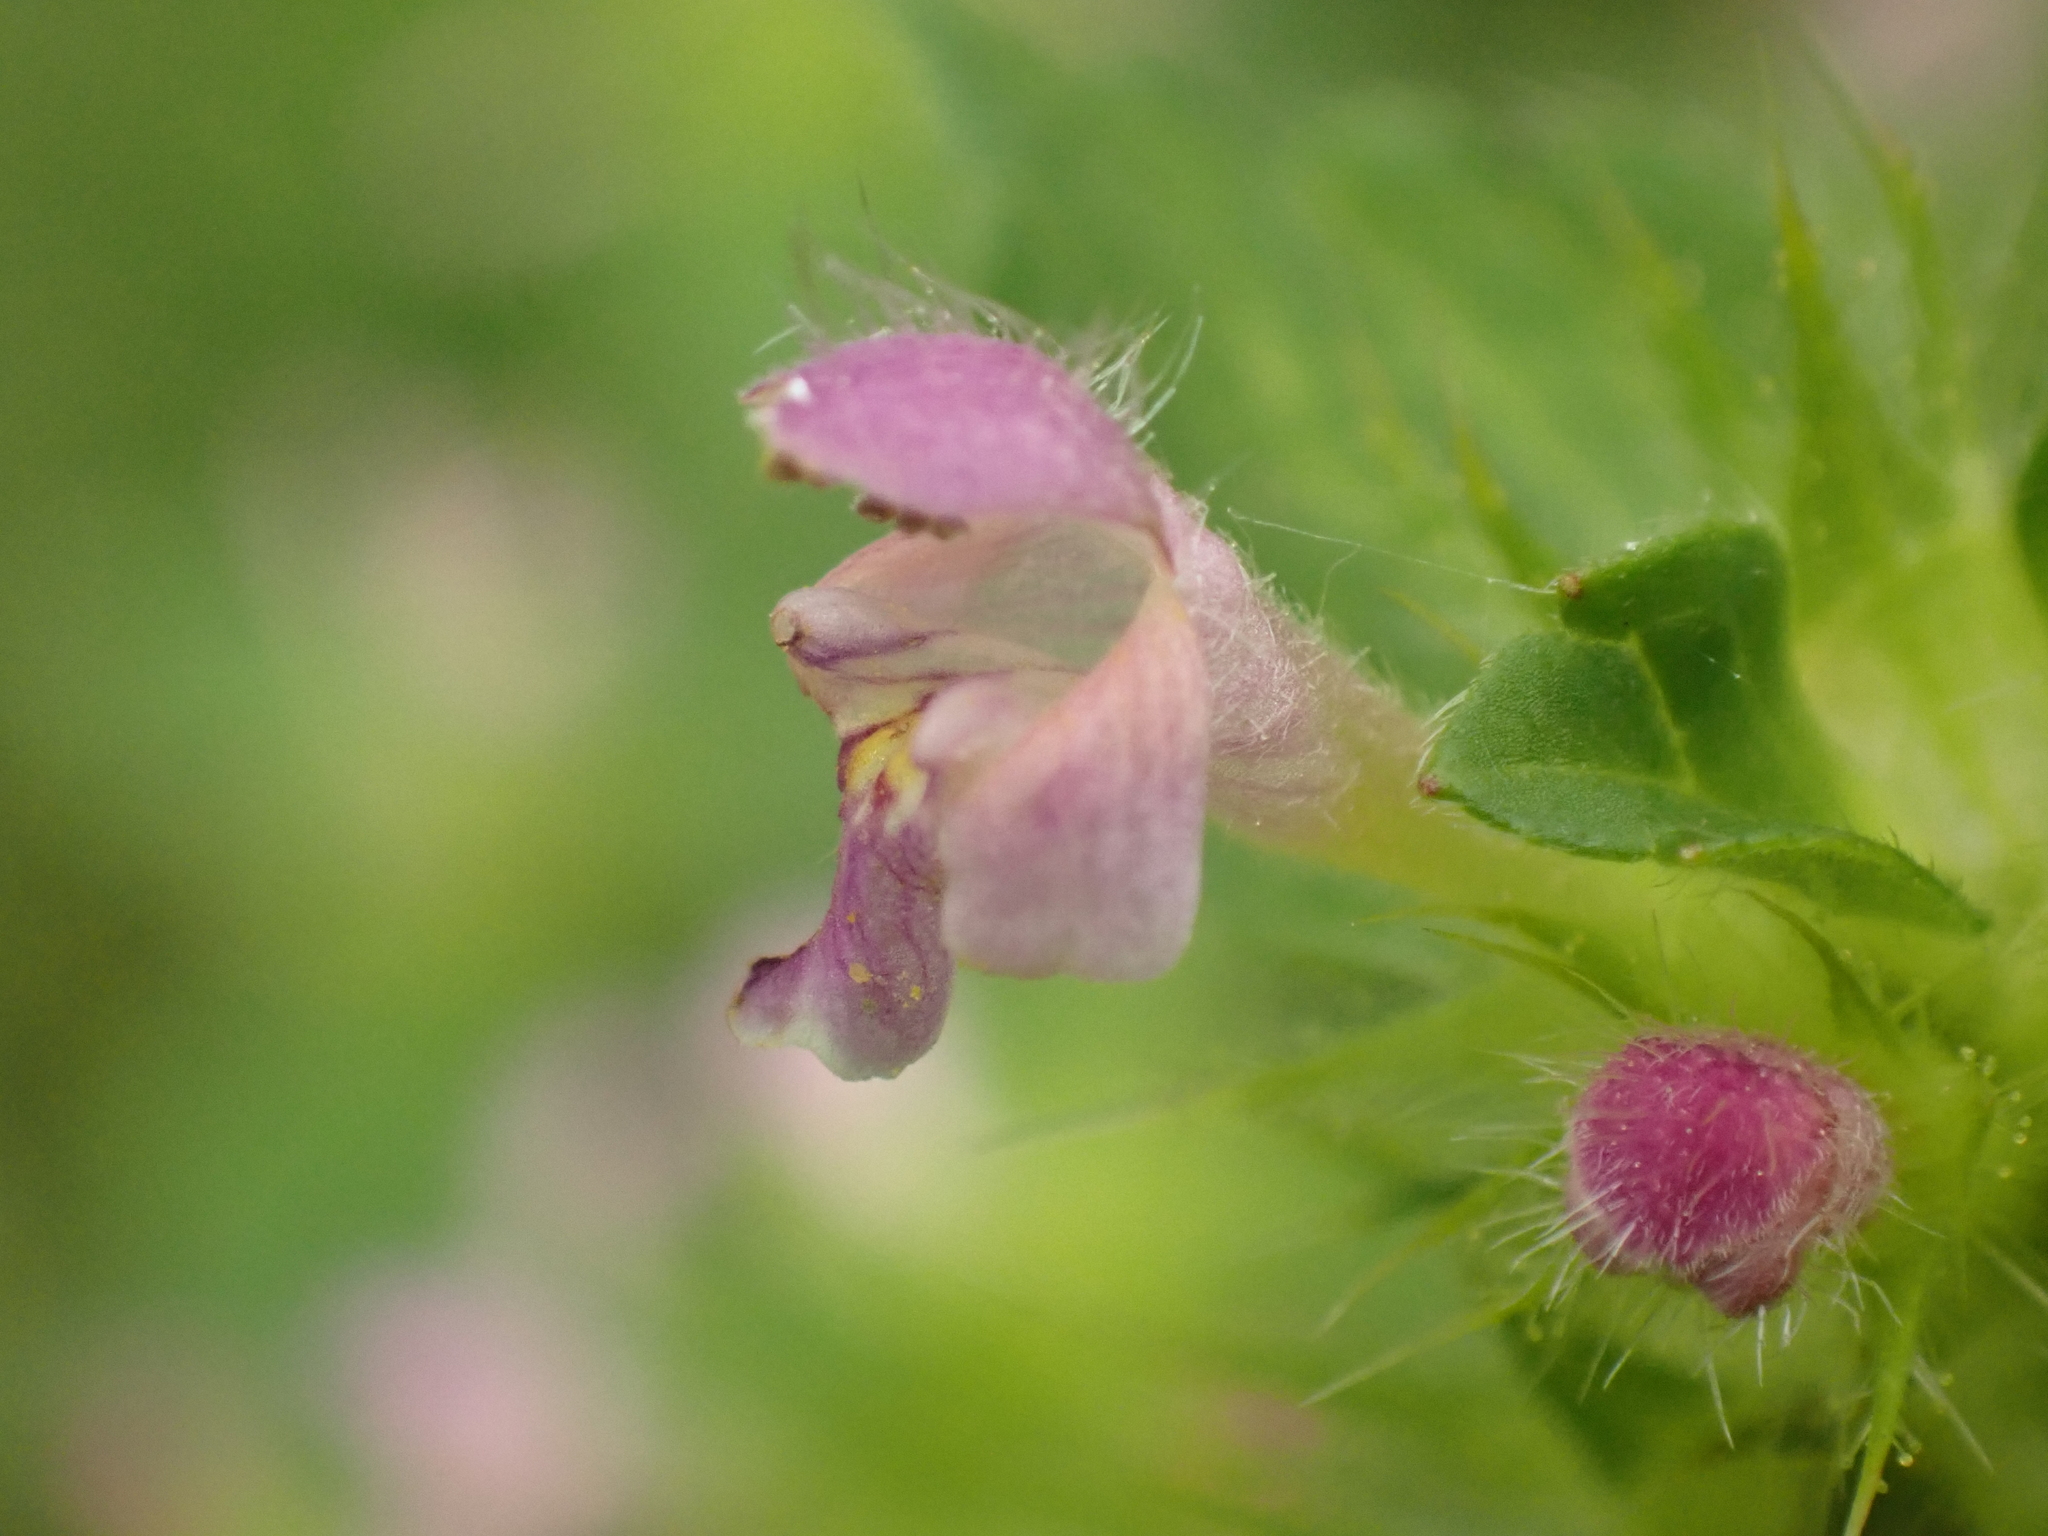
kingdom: Plantae
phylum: Tracheophyta
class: Magnoliopsida
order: Lamiales
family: Lamiaceae
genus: Galeopsis
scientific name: Galeopsis bifida
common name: Bifid hemp-nettle
